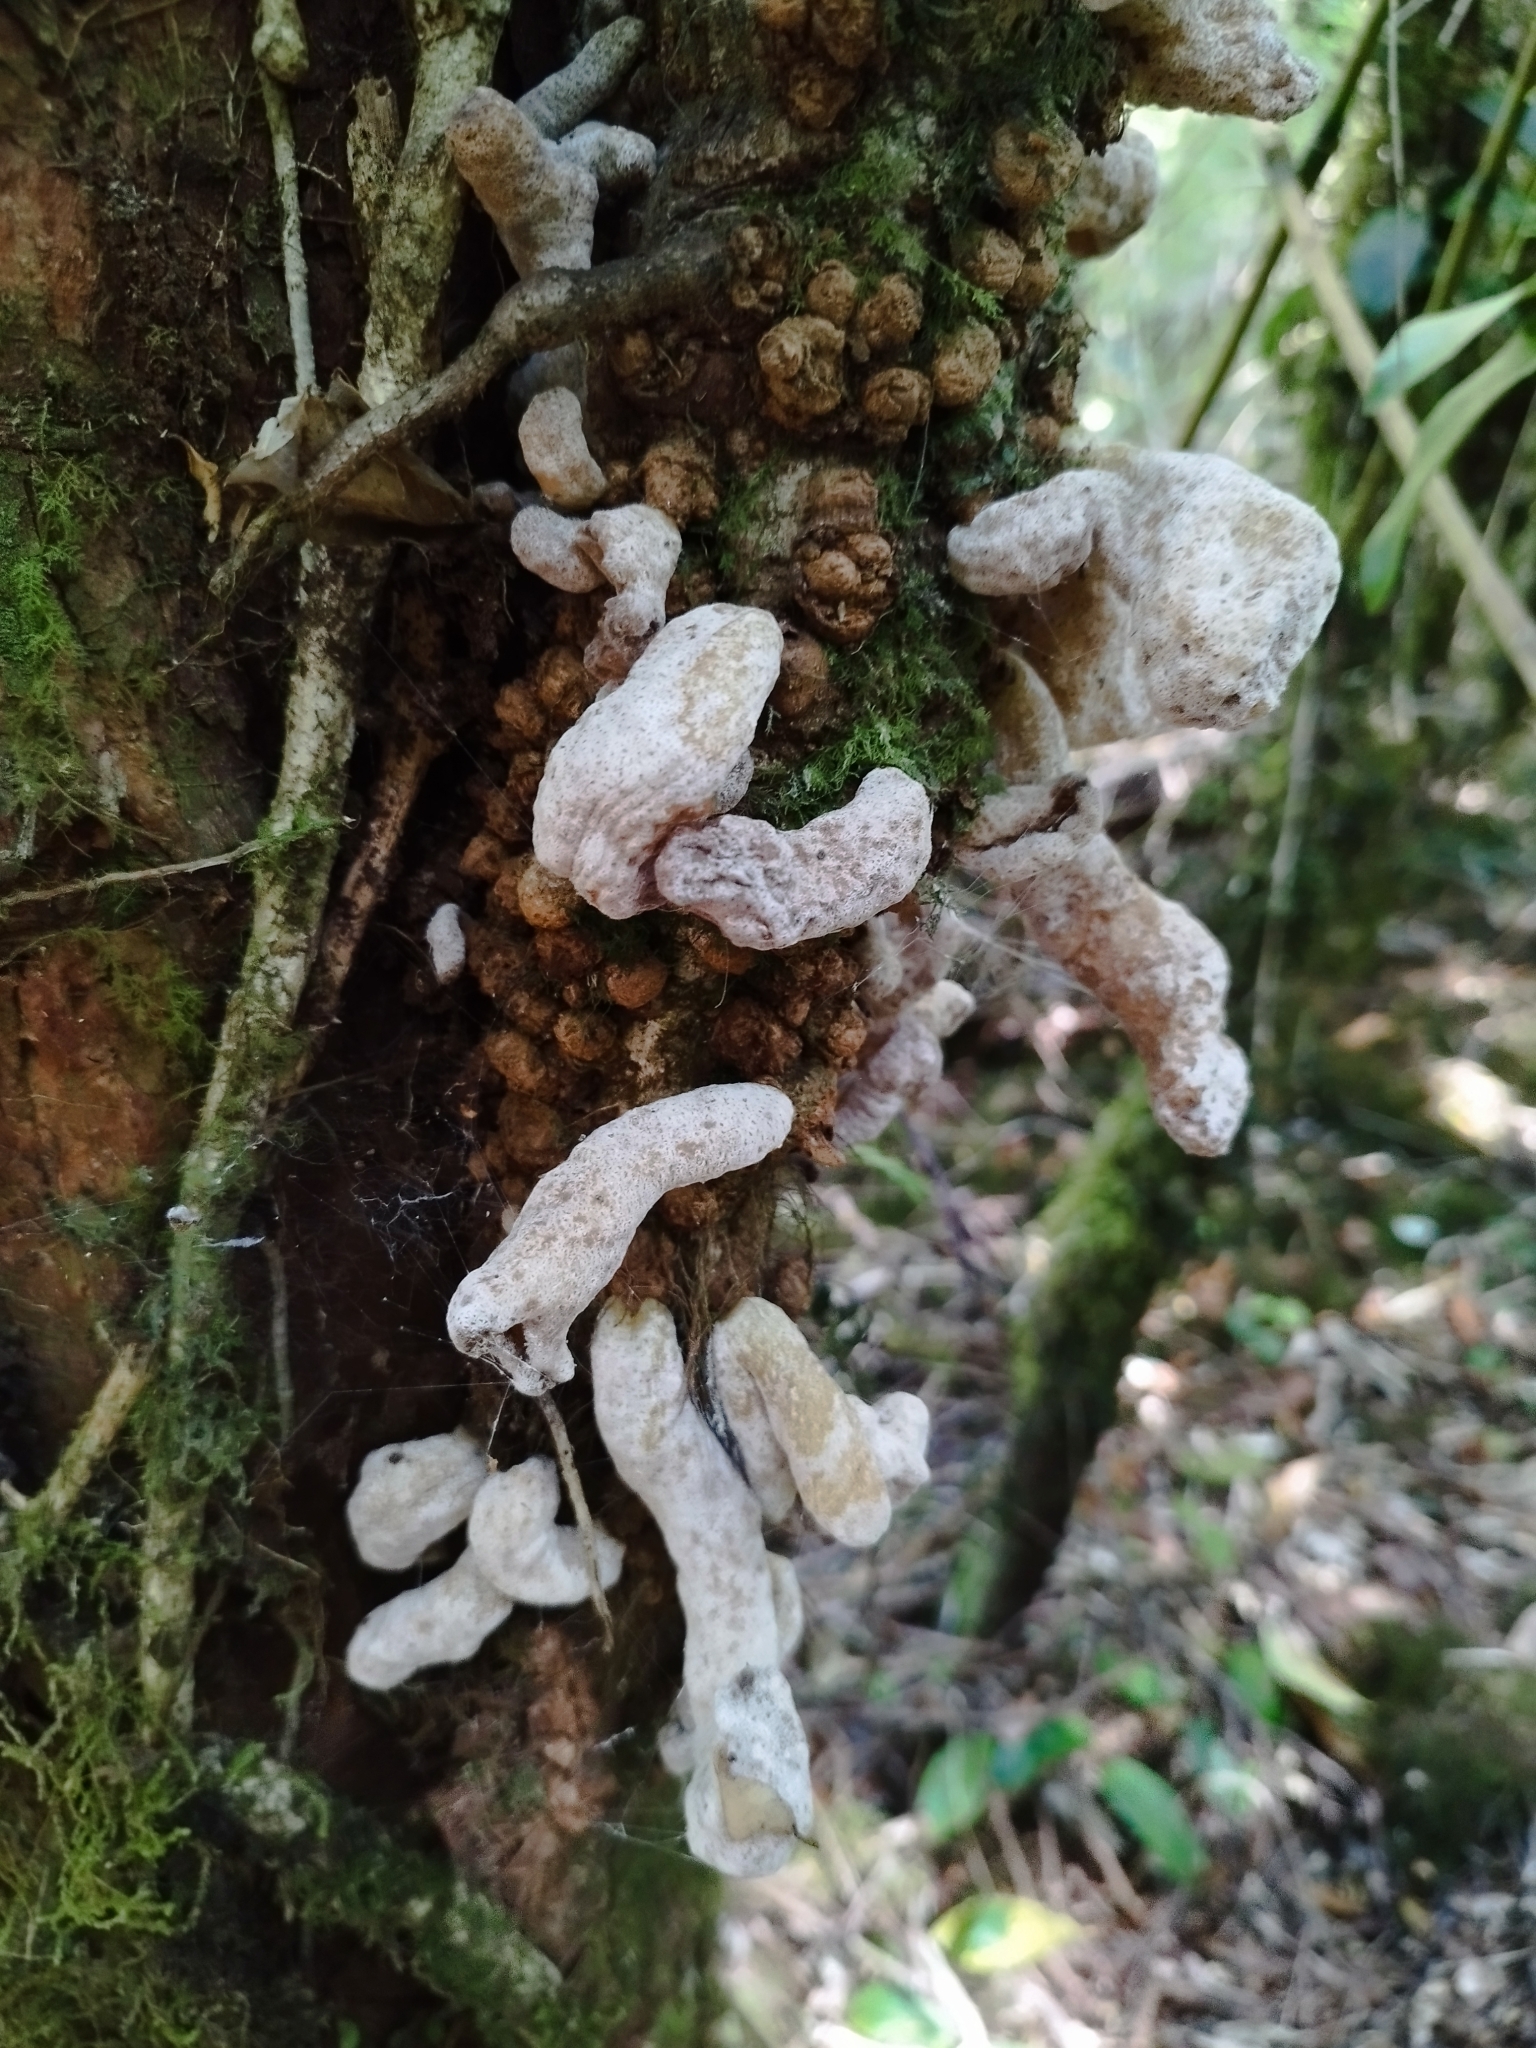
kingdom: Fungi
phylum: Basidiomycota
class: Exobasidiomycetes
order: Exobasidiales
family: Exobasidiaceae
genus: Austrobasidium
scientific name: Austrobasidium pehueldeni
